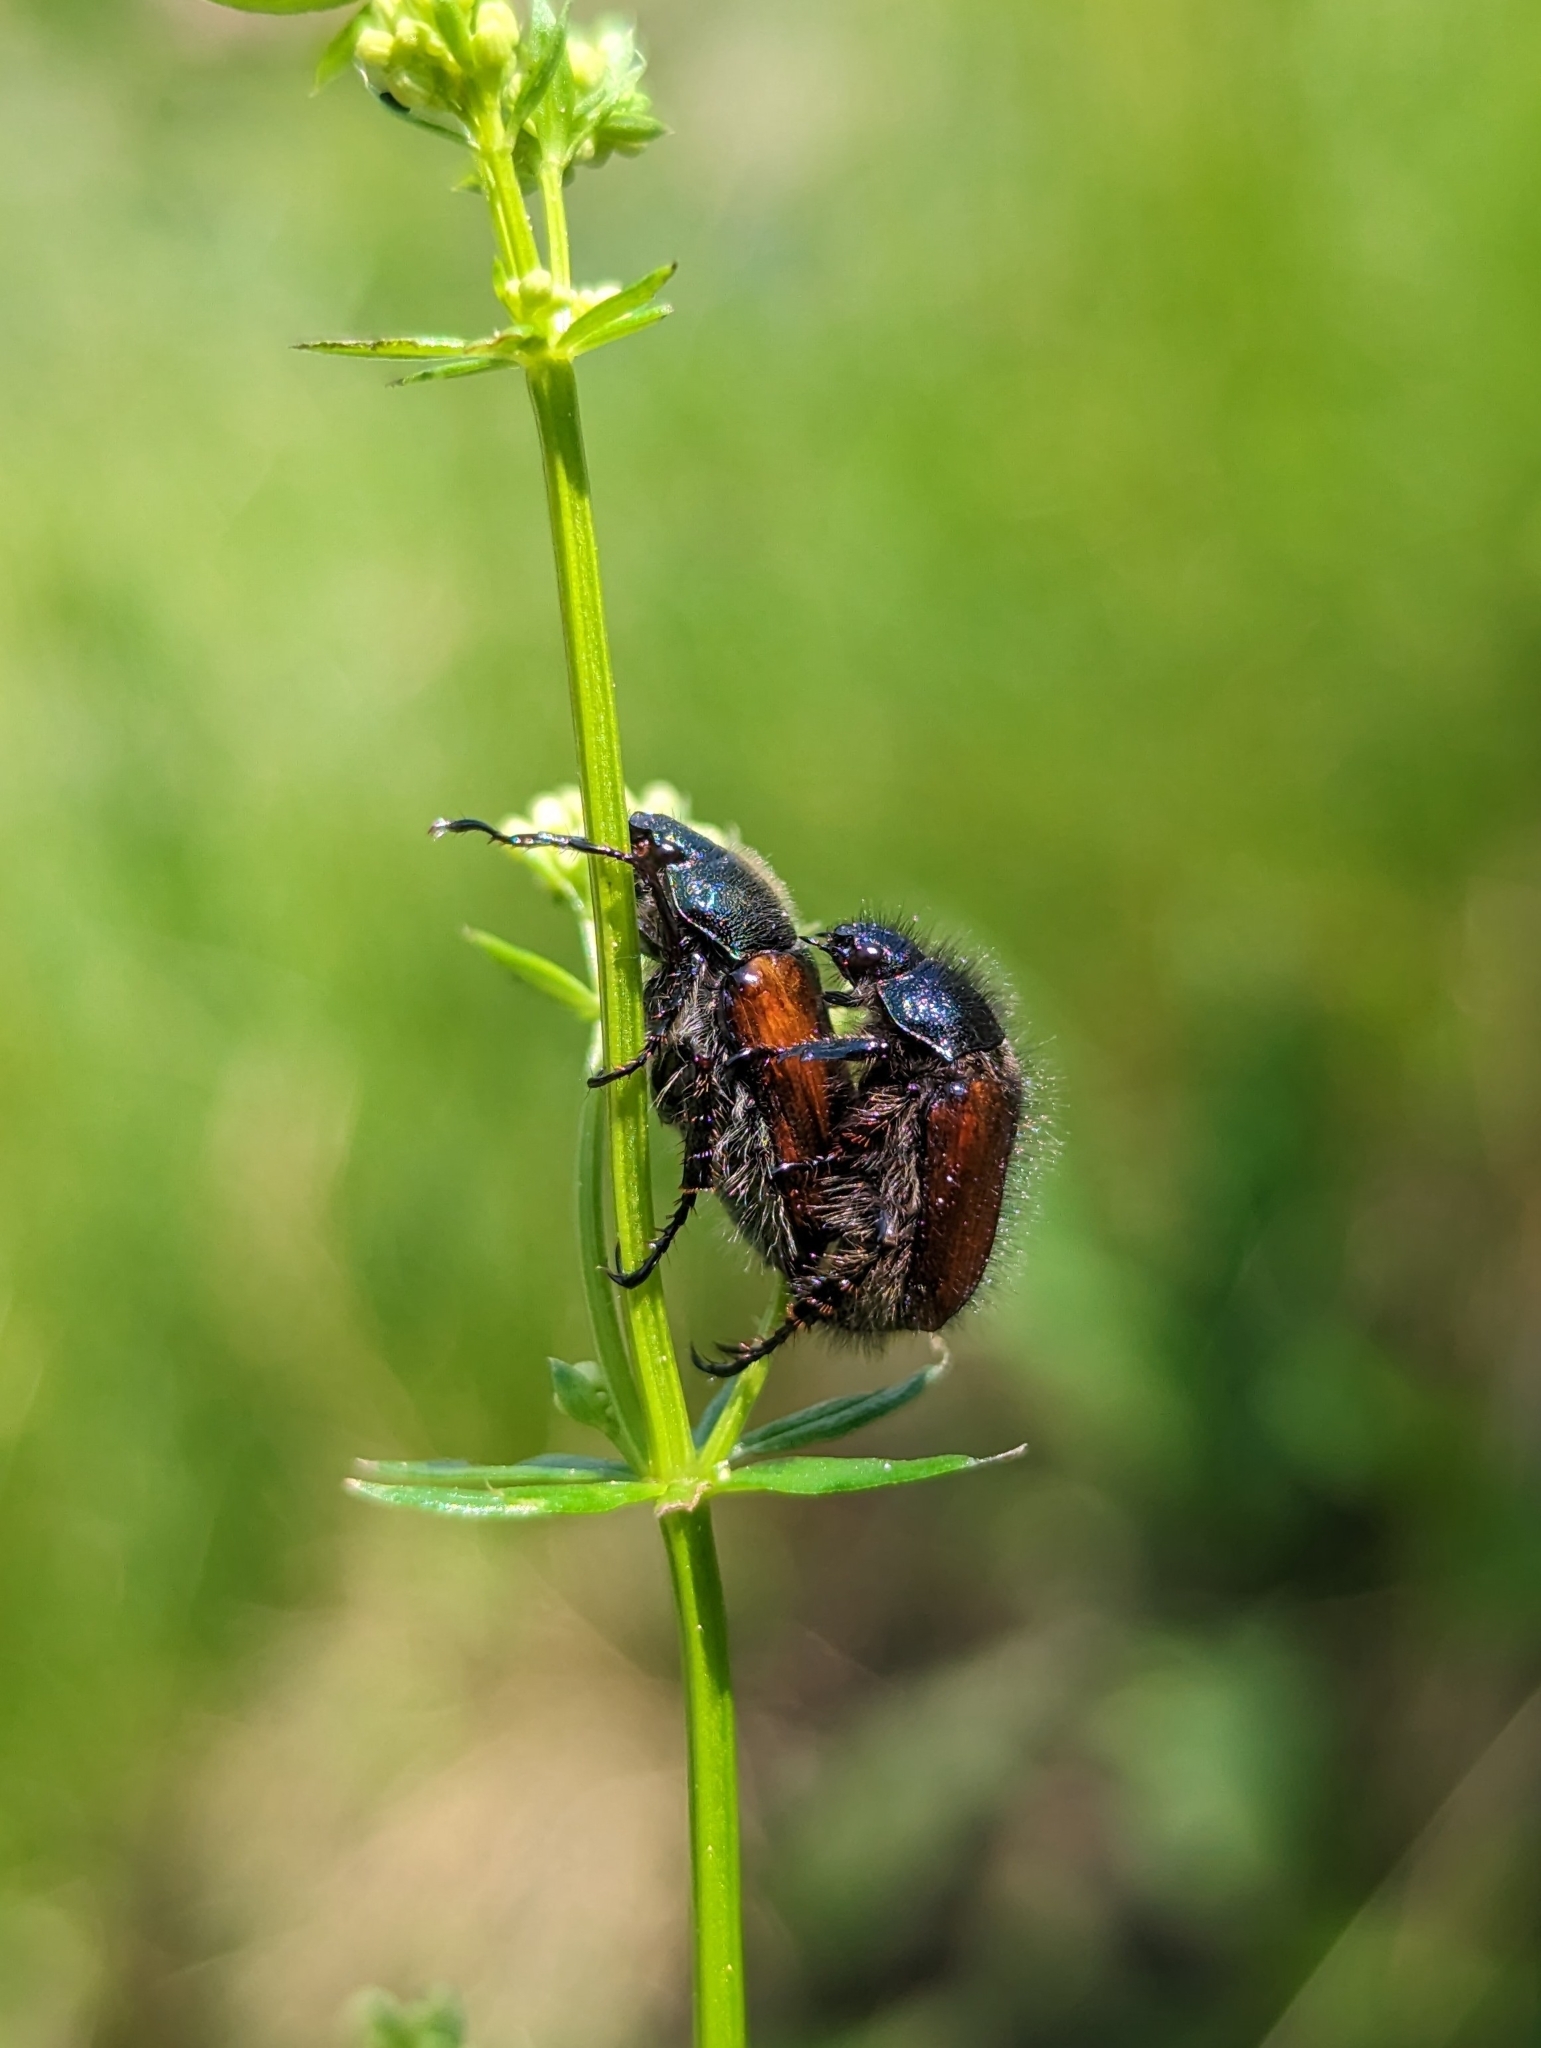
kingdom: Animalia
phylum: Arthropoda
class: Insecta
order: Coleoptera
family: Scarabaeidae
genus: Phyllopertha
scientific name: Phyllopertha horticola
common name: Garden chafer
